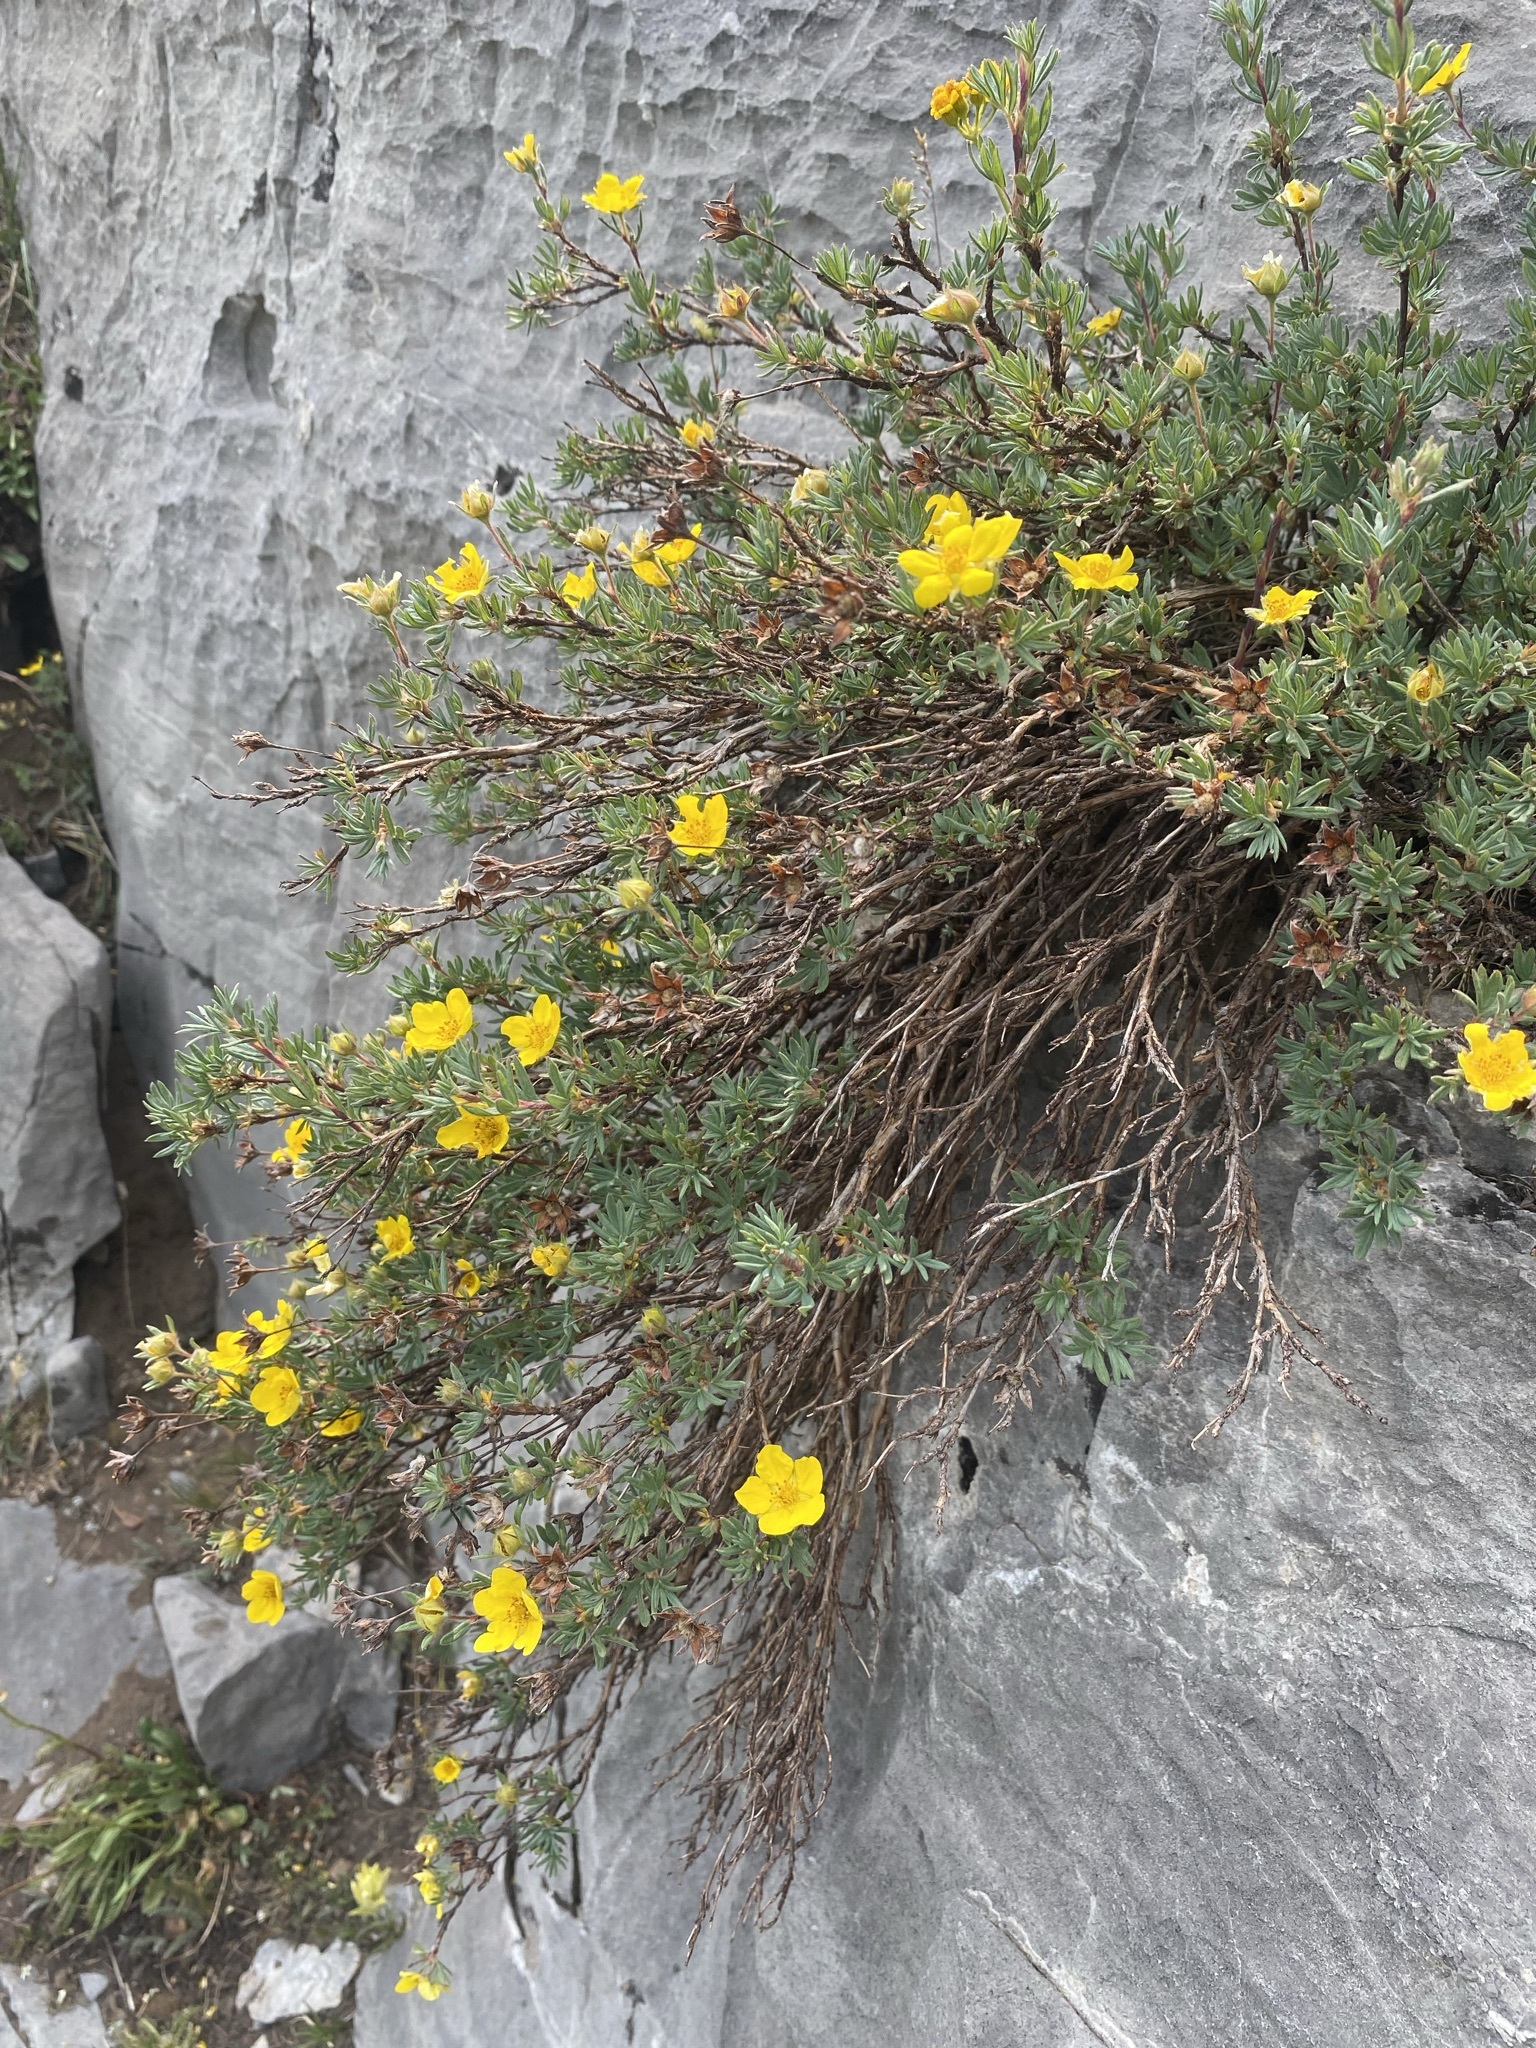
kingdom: Plantae
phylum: Tracheophyta
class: Magnoliopsida
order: Rosales
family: Rosaceae
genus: Dasiphora
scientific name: Dasiphora fruticosa
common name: Shrubby cinquefoil
